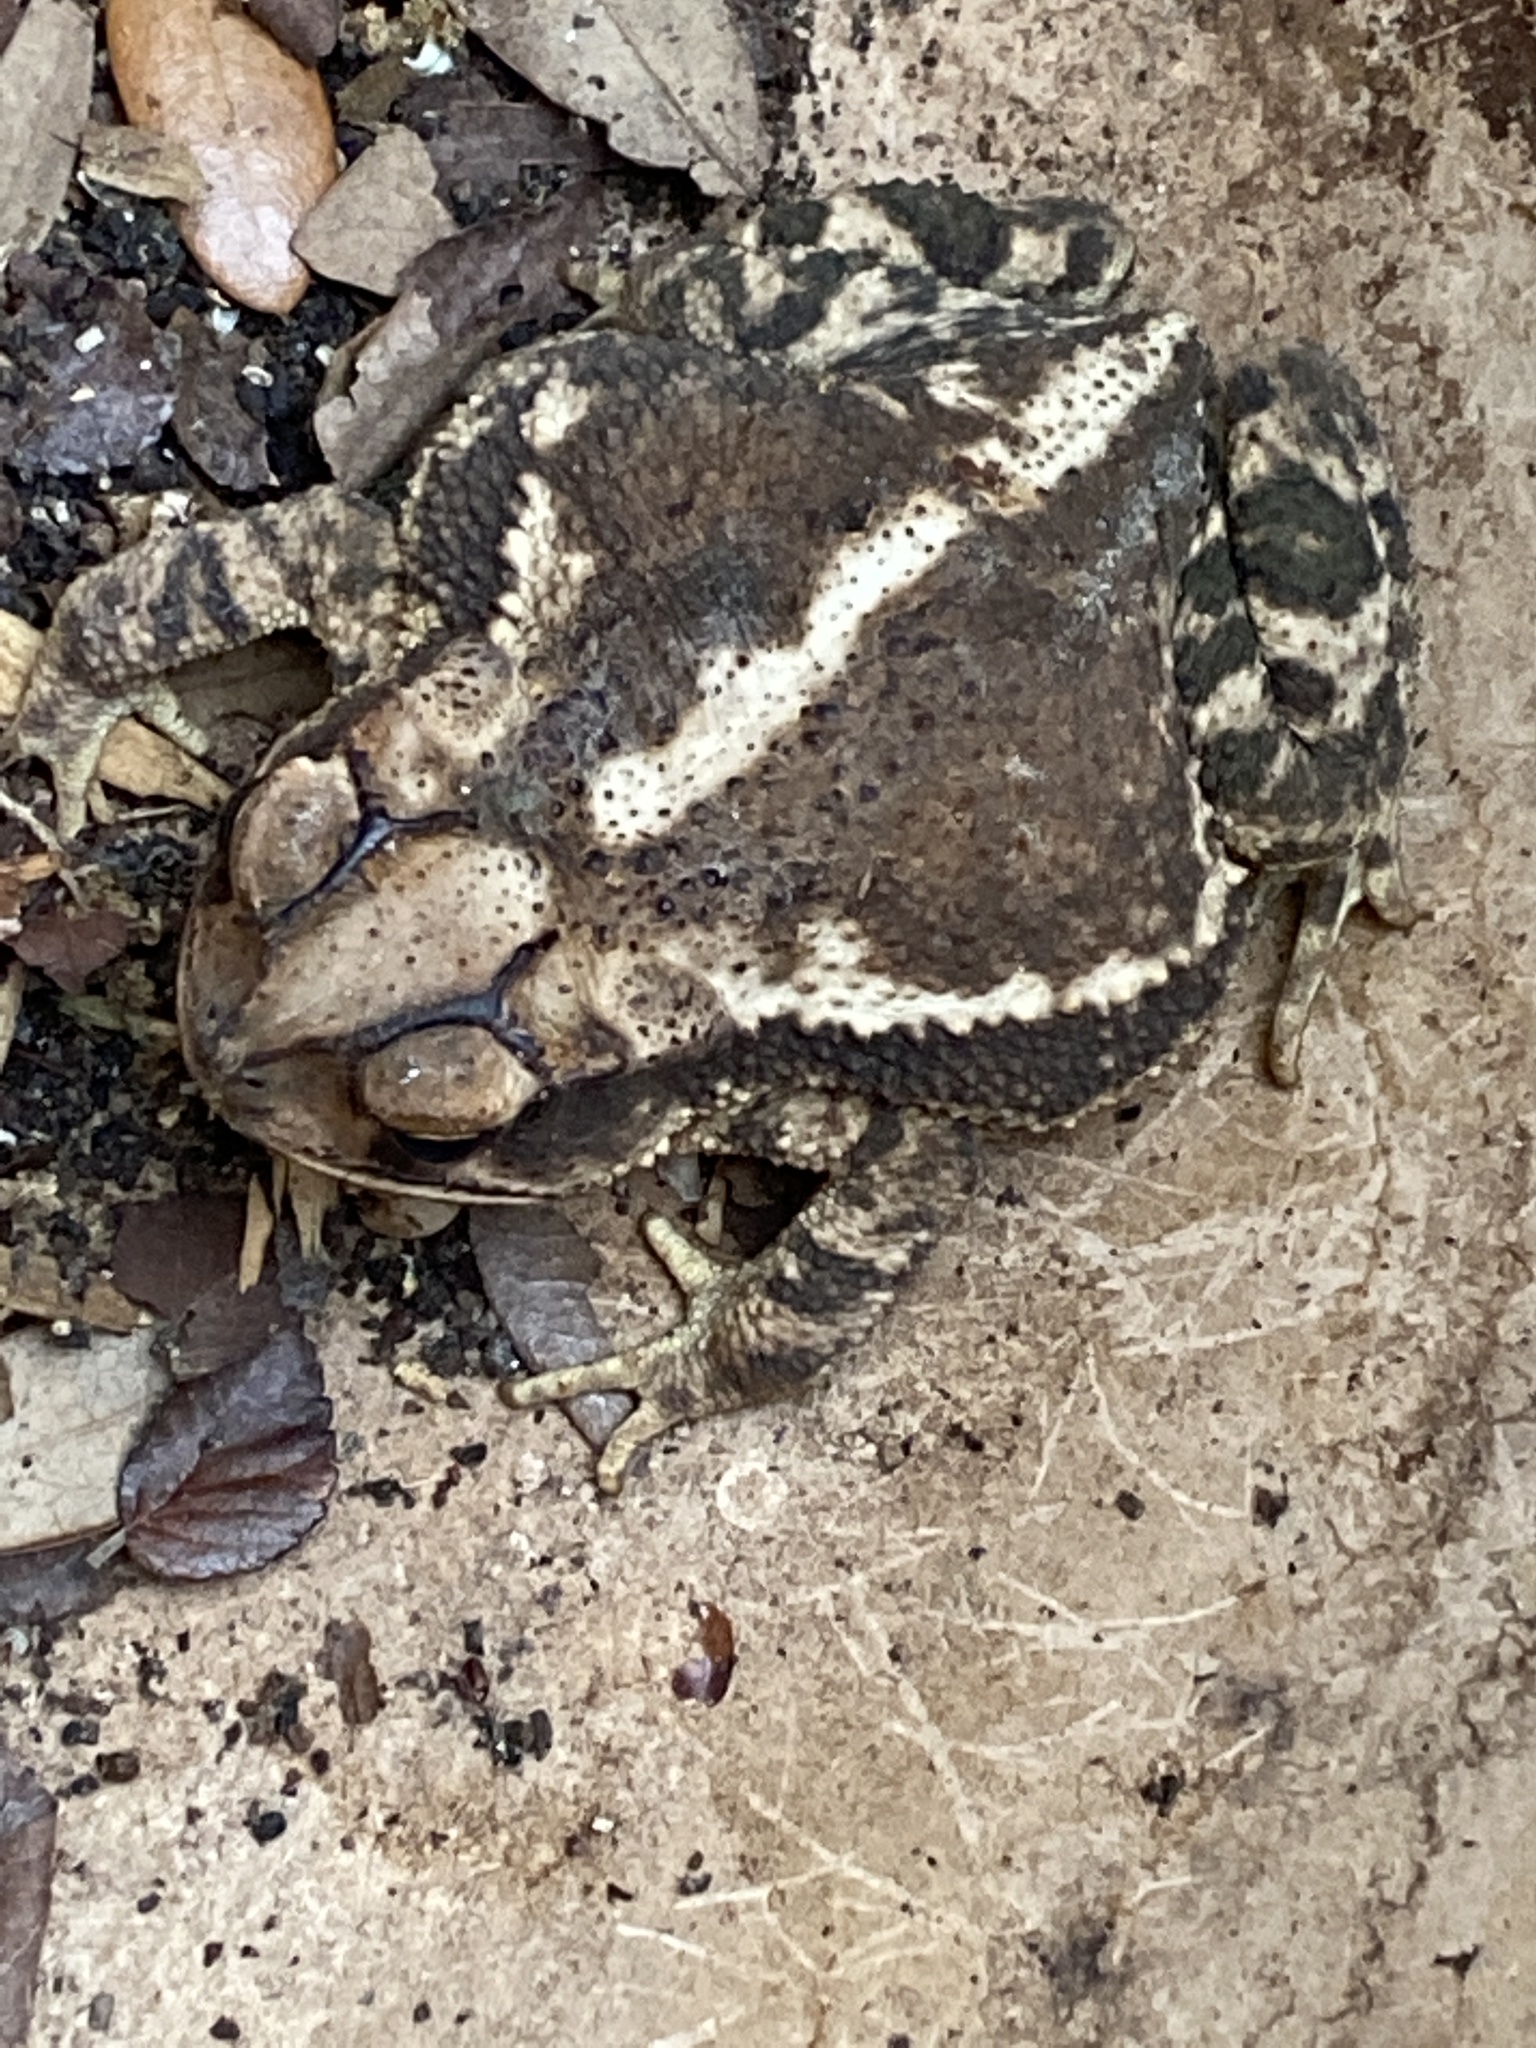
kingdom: Animalia
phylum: Chordata
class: Amphibia
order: Anura
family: Bufonidae
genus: Incilius
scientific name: Incilius nebulifer
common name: Gulf coast toad
